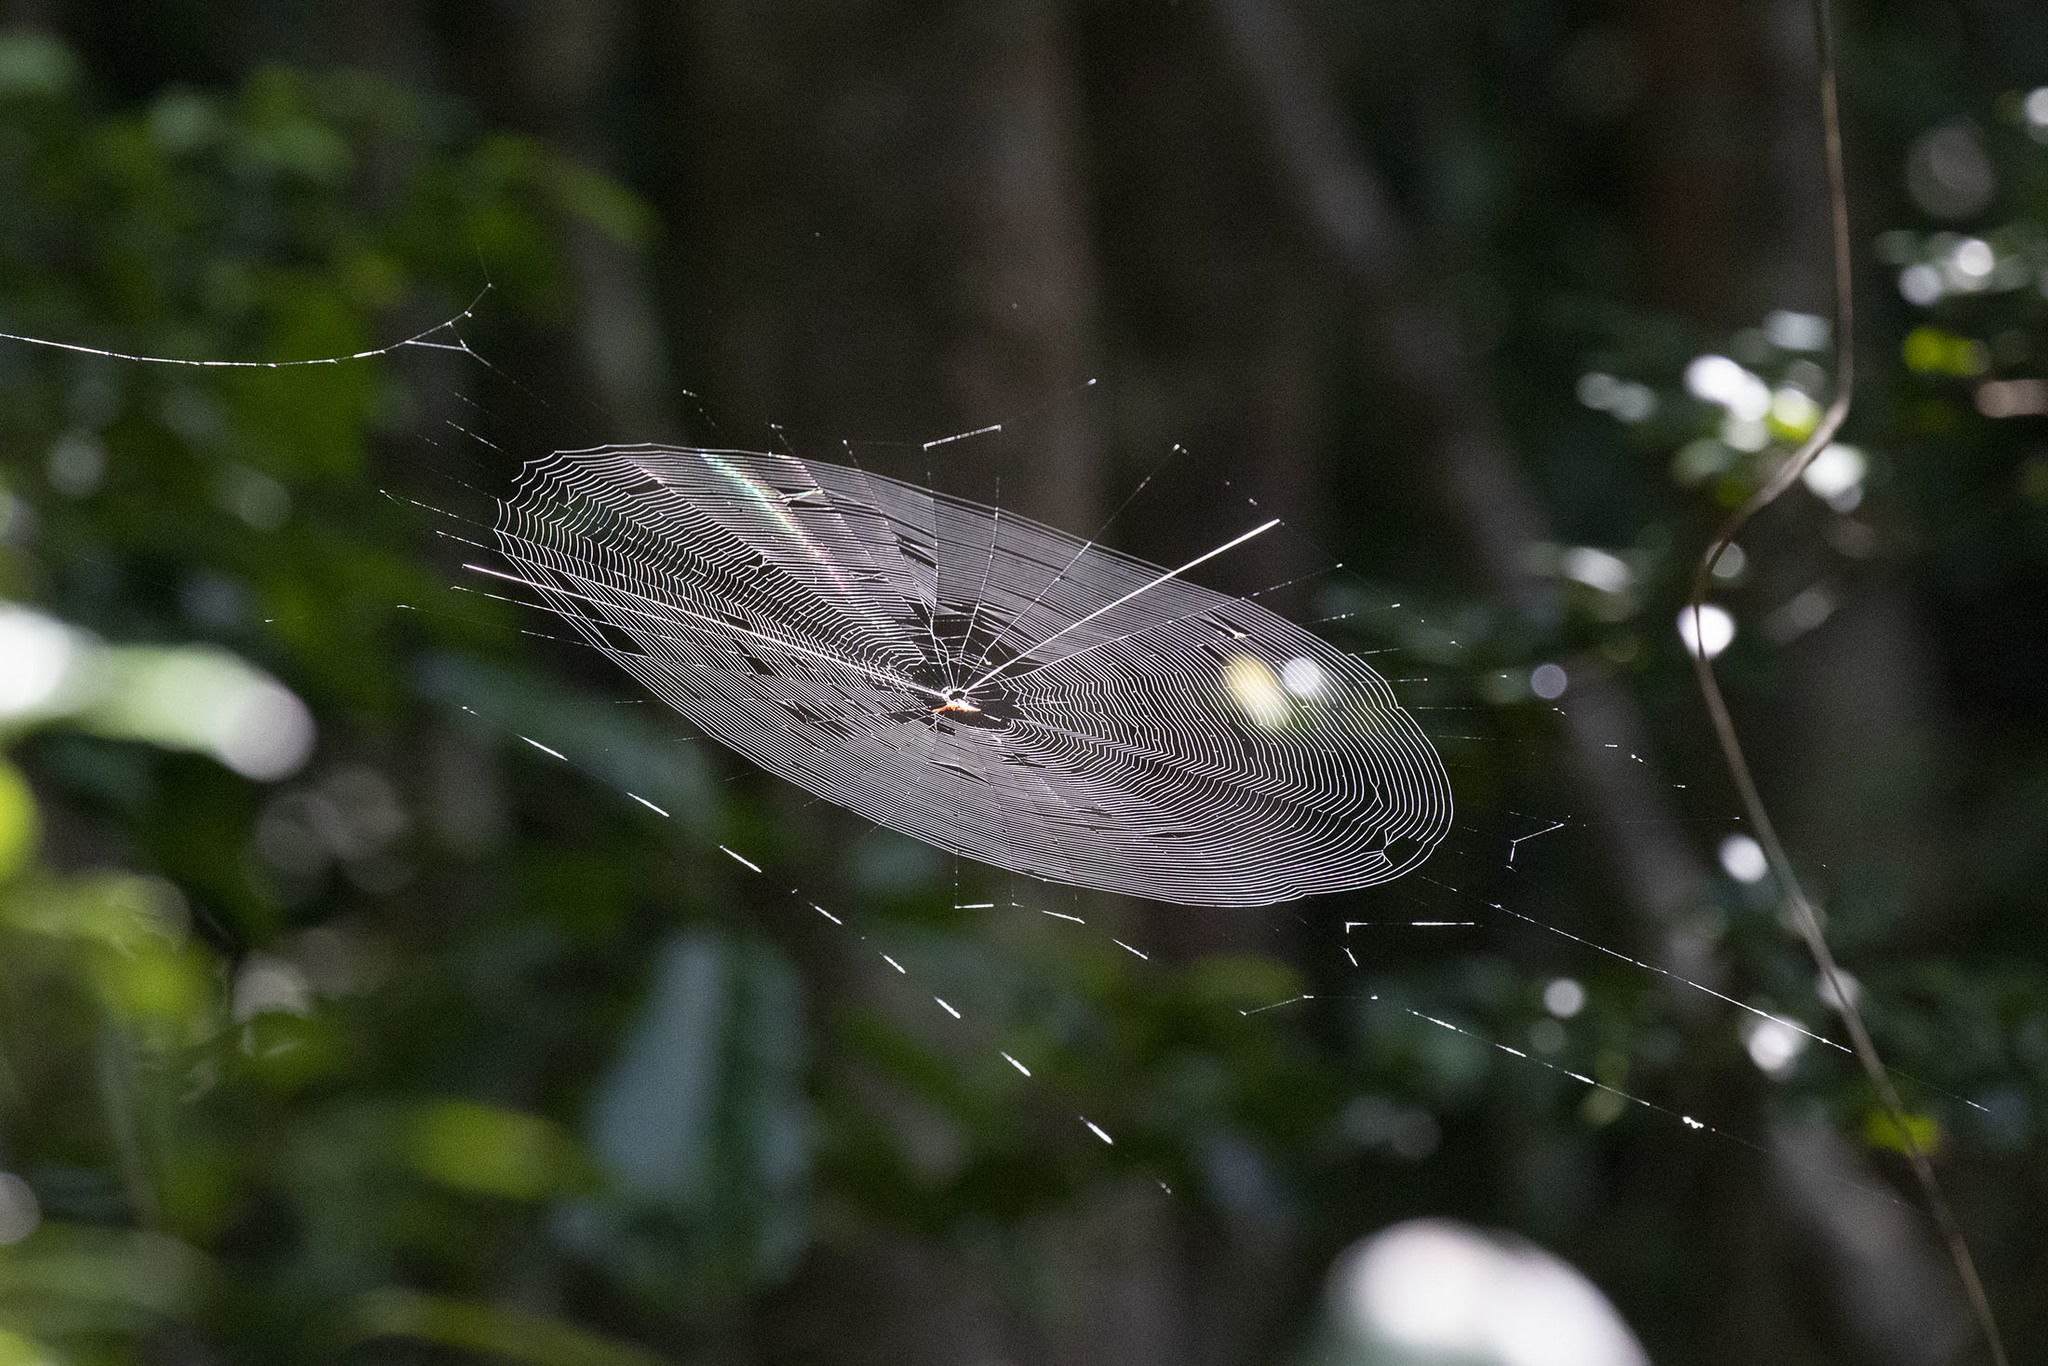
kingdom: Animalia
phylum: Arthropoda
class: Arachnida
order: Araneae
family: Araneidae
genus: Gasteracantha
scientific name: Gasteracantha versicolor
